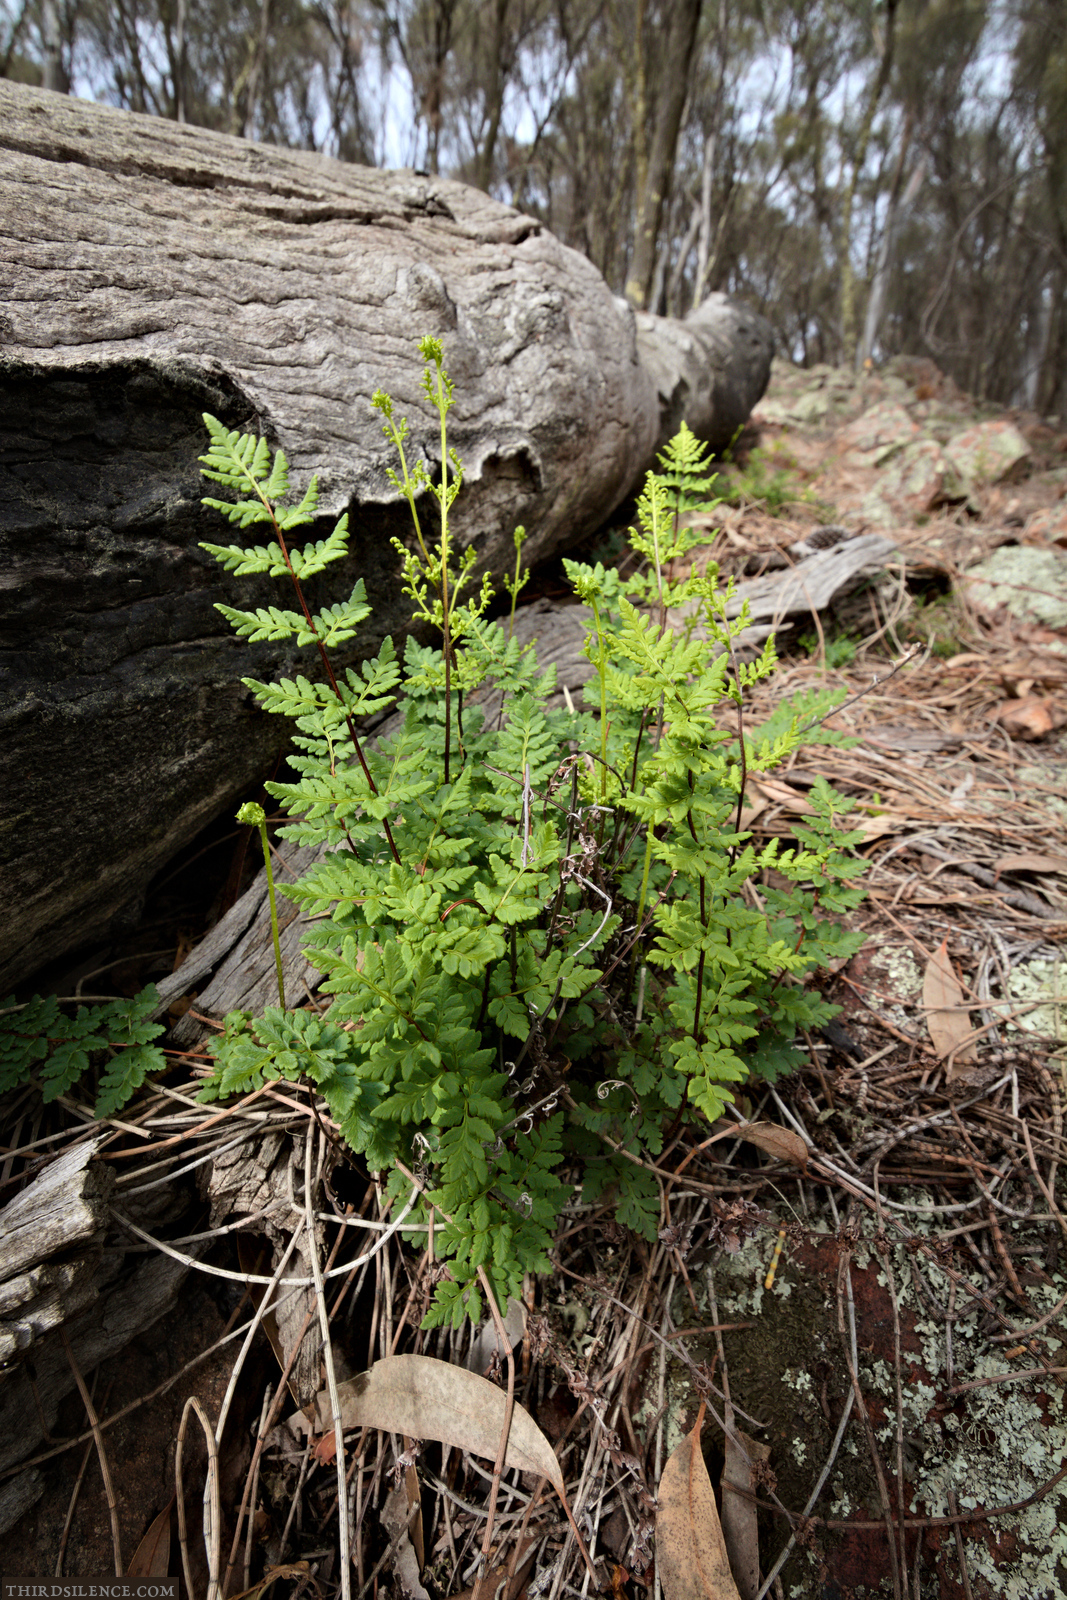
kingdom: Plantae
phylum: Tracheophyta
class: Polypodiopsida
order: Polypodiales
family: Pteridaceae
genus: Cheilanthes
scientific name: Cheilanthes sieberi
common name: Mulga fern
